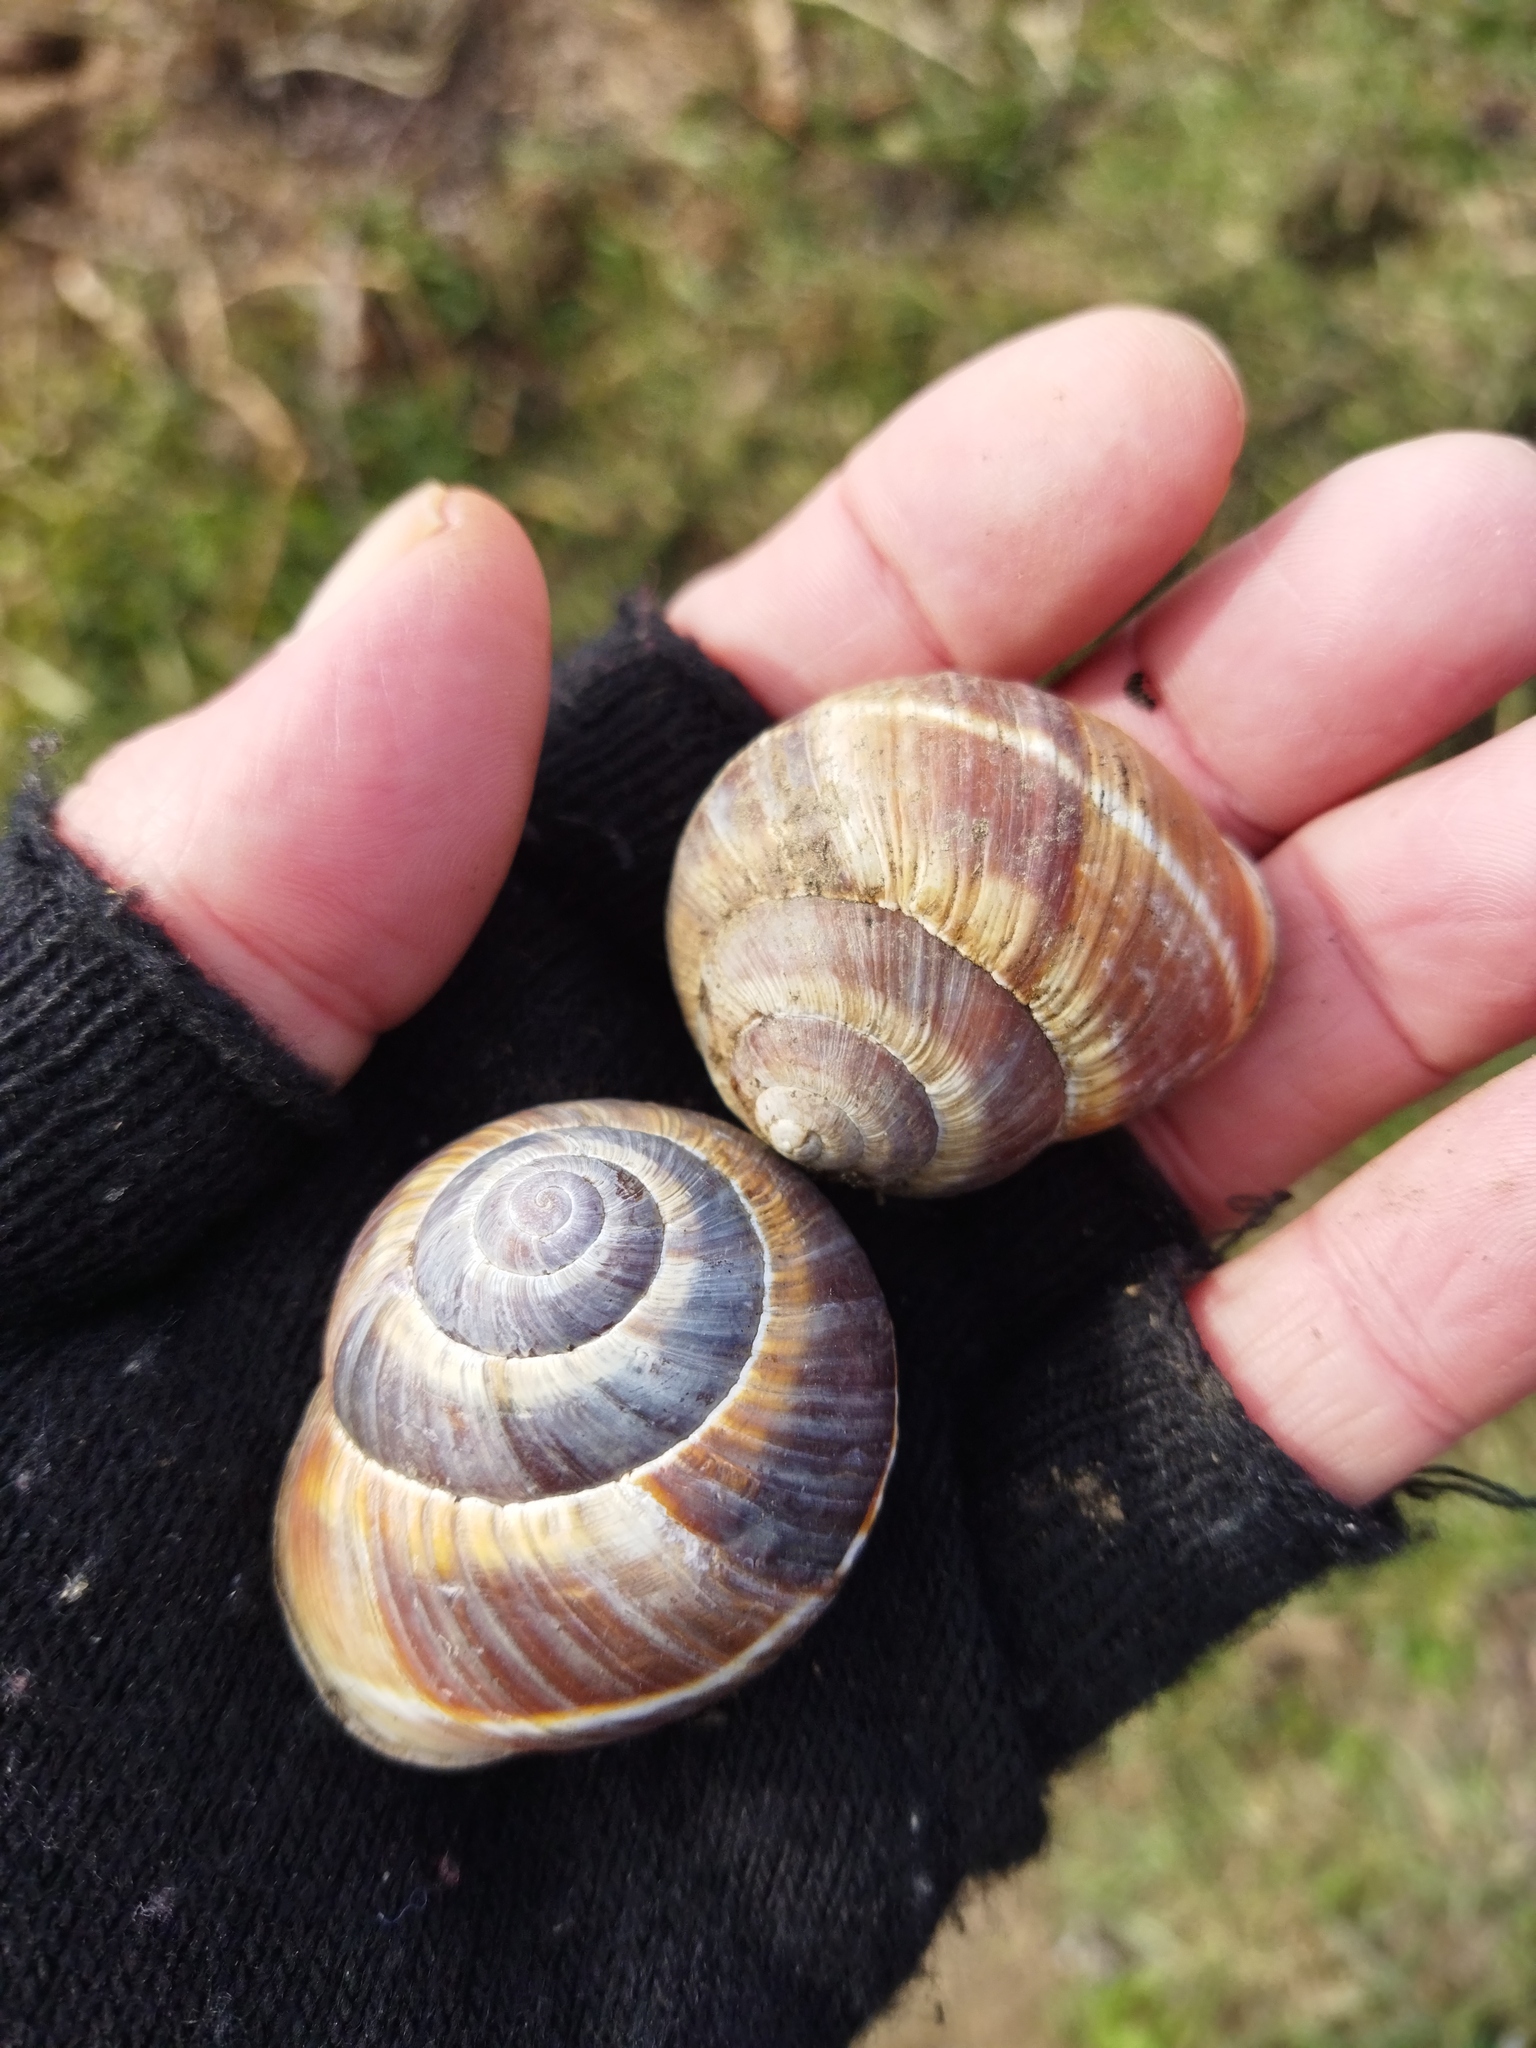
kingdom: Animalia
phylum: Mollusca
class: Gastropoda
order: Stylommatophora
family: Helicidae
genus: Helix
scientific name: Helix lucorum
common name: Turkish snail
